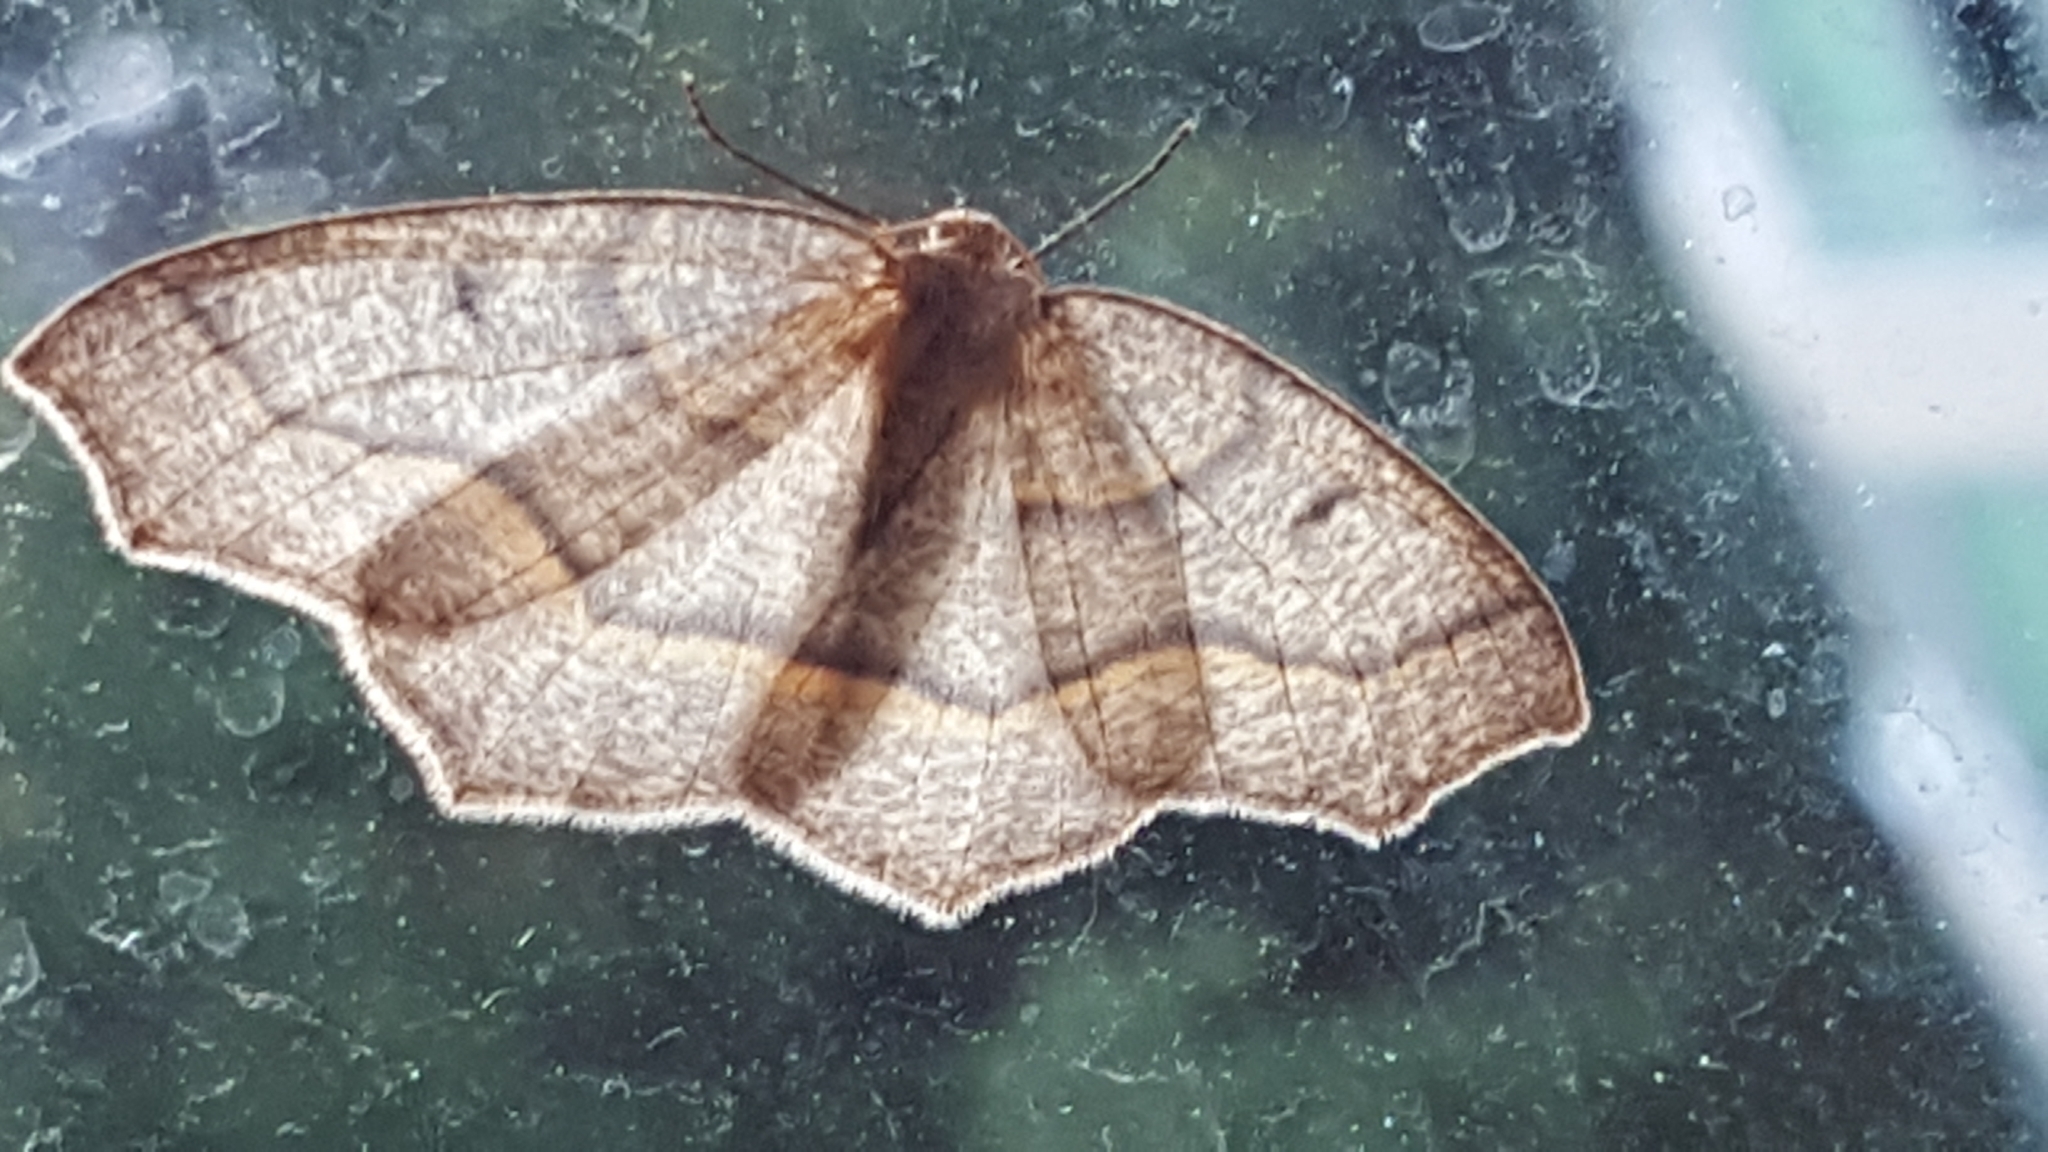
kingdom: Animalia
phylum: Arthropoda
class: Insecta
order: Lepidoptera
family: Geometridae
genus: Lambdina
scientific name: Lambdina fiscellaria
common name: Hemlock looper
